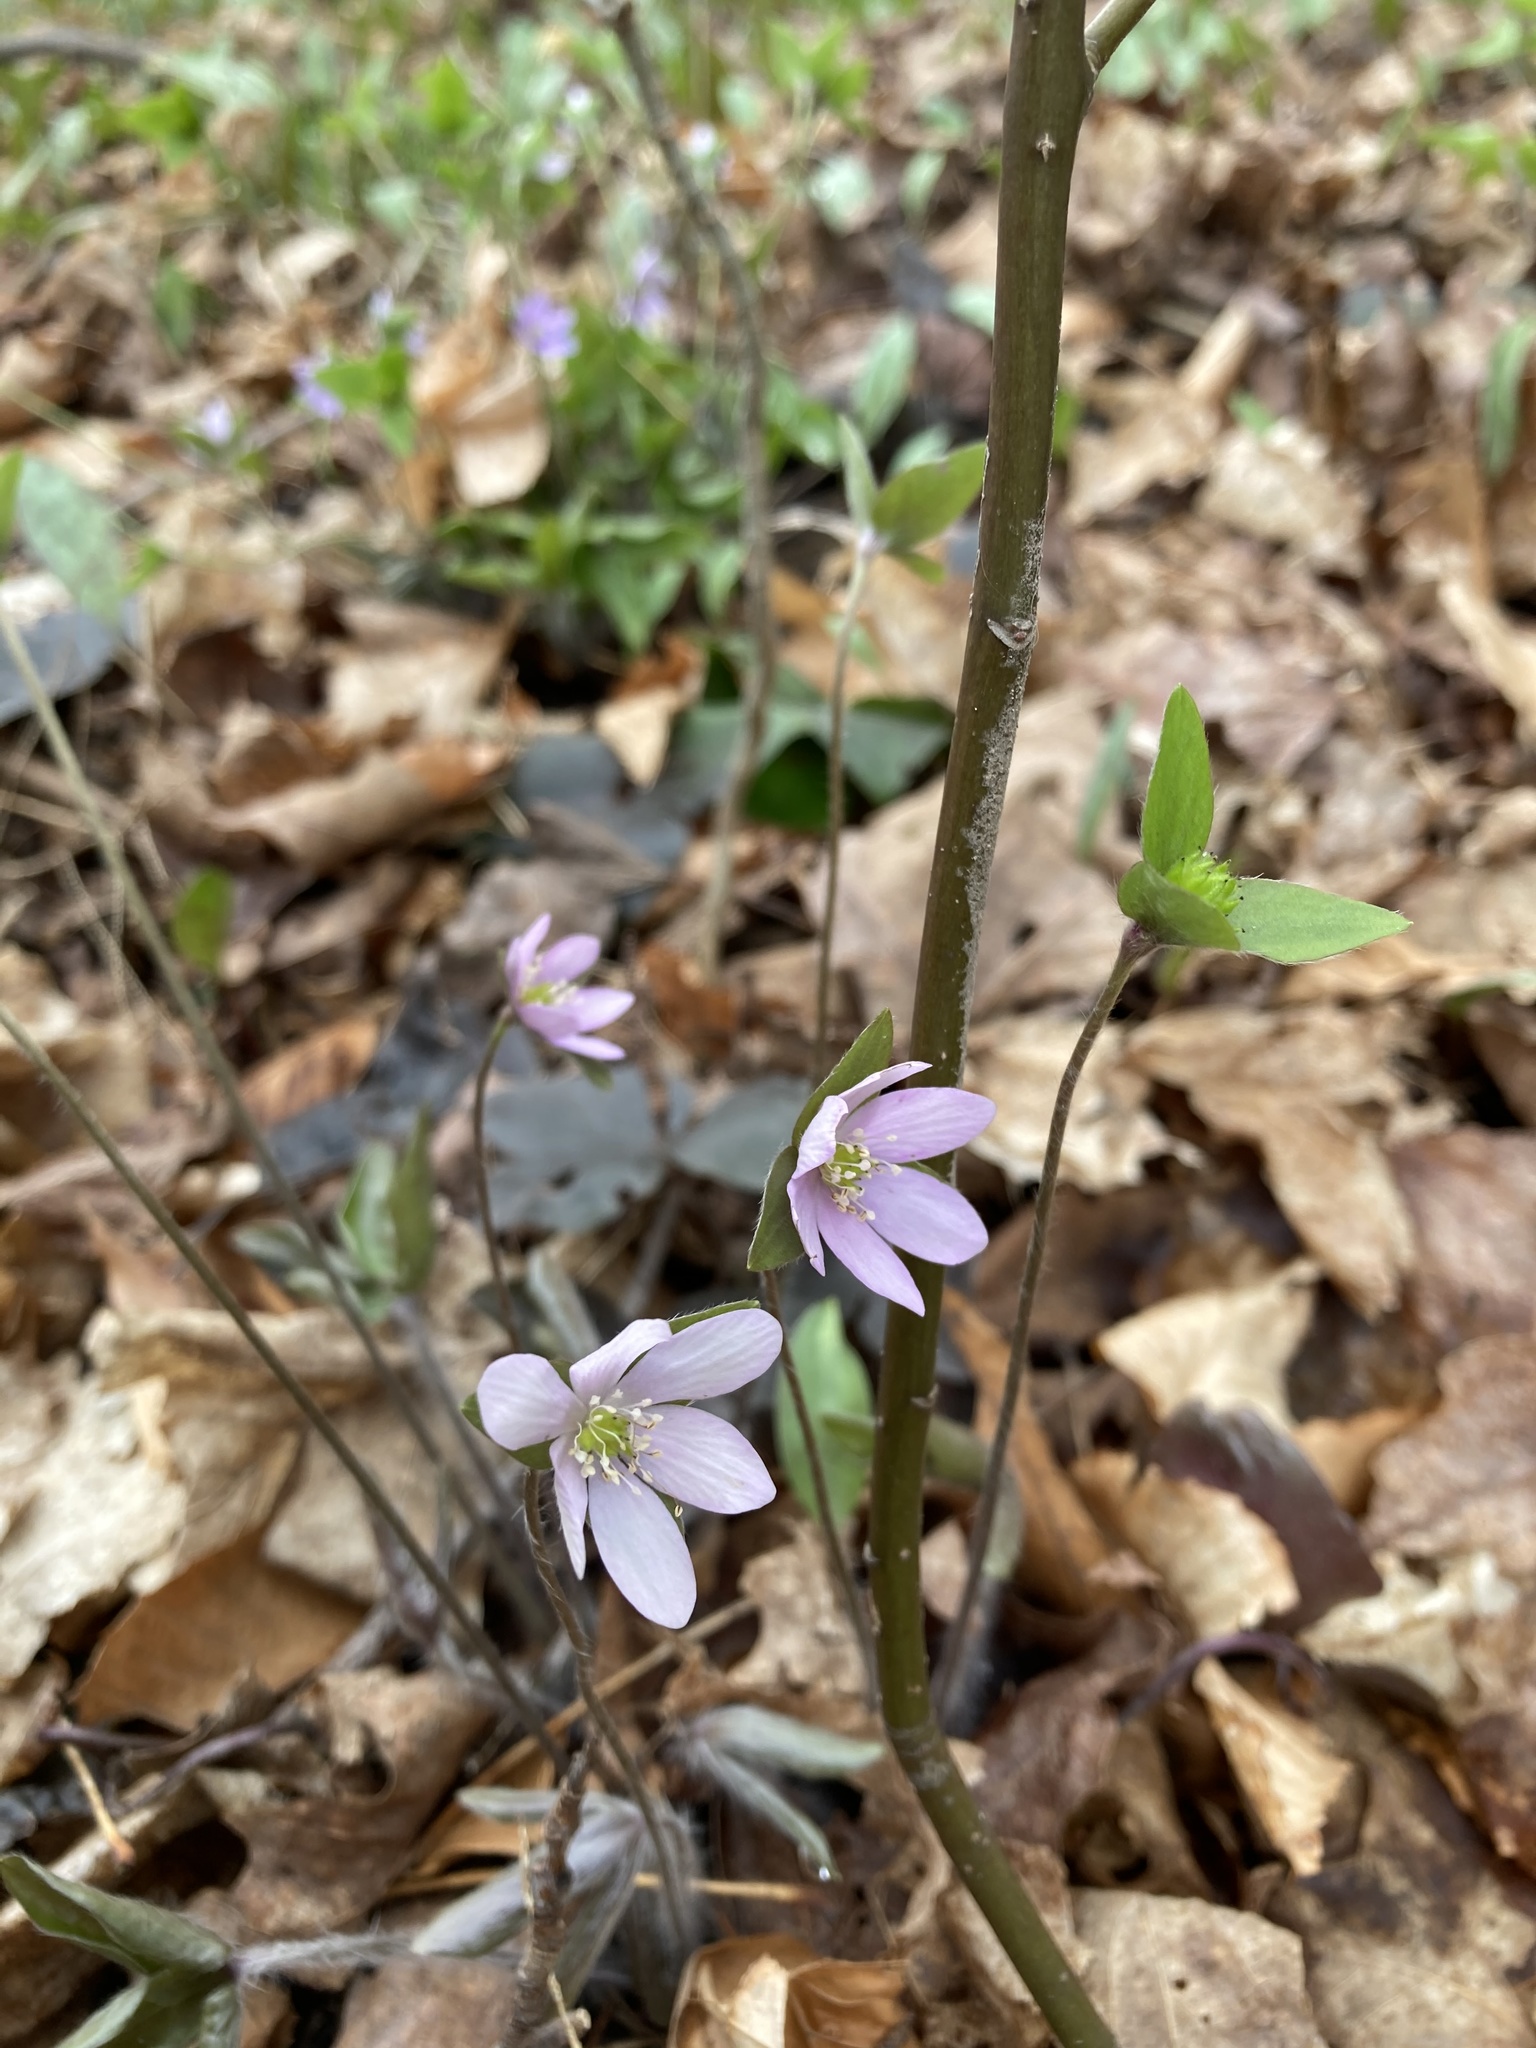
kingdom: Plantae
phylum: Tracheophyta
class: Magnoliopsida
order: Ranunculales
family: Ranunculaceae
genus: Hepatica
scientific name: Hepatica acutiloba
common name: Sharp-lobed hepatica
